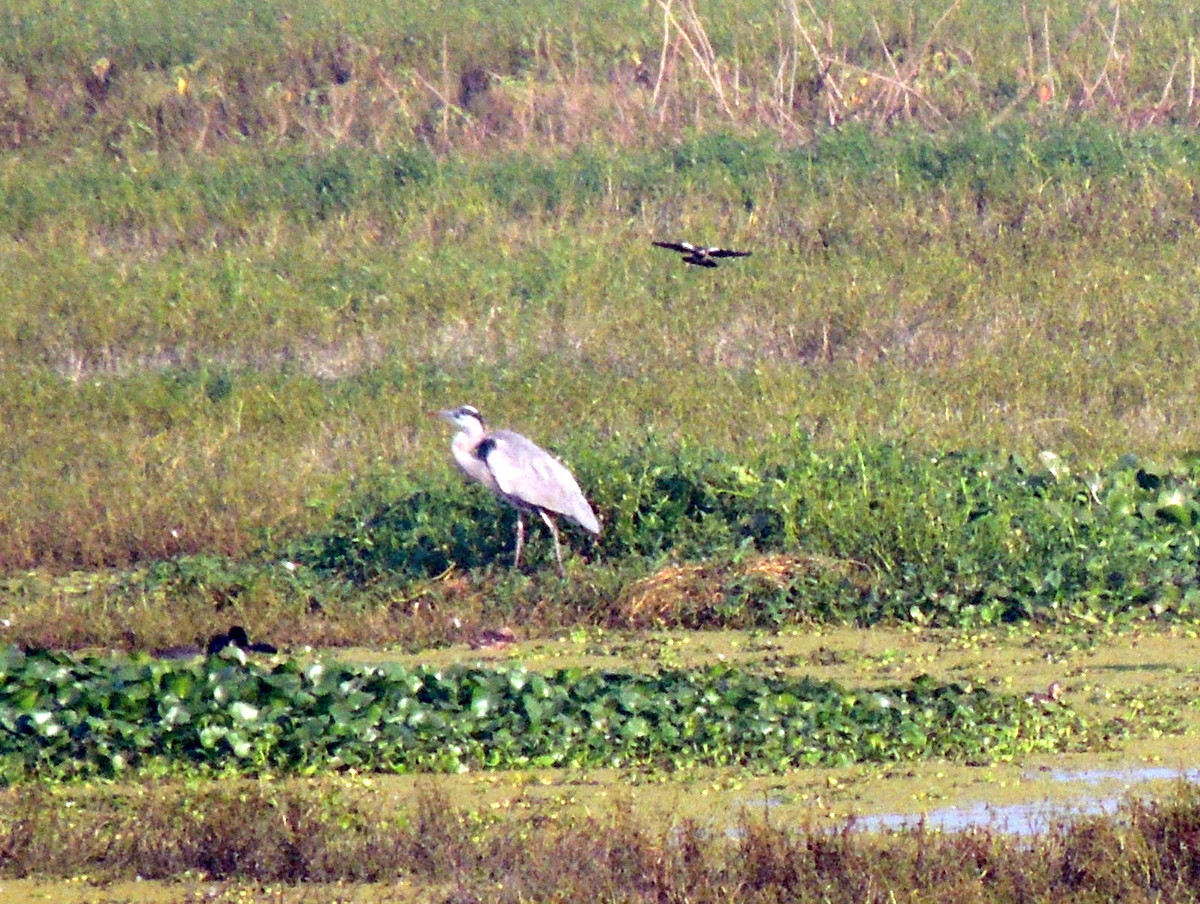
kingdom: Animalia
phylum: Chordata
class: Aves
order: Pelecaniformes
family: Ardeidae
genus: Ardea
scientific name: Ardea cinerea
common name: Grey heron
